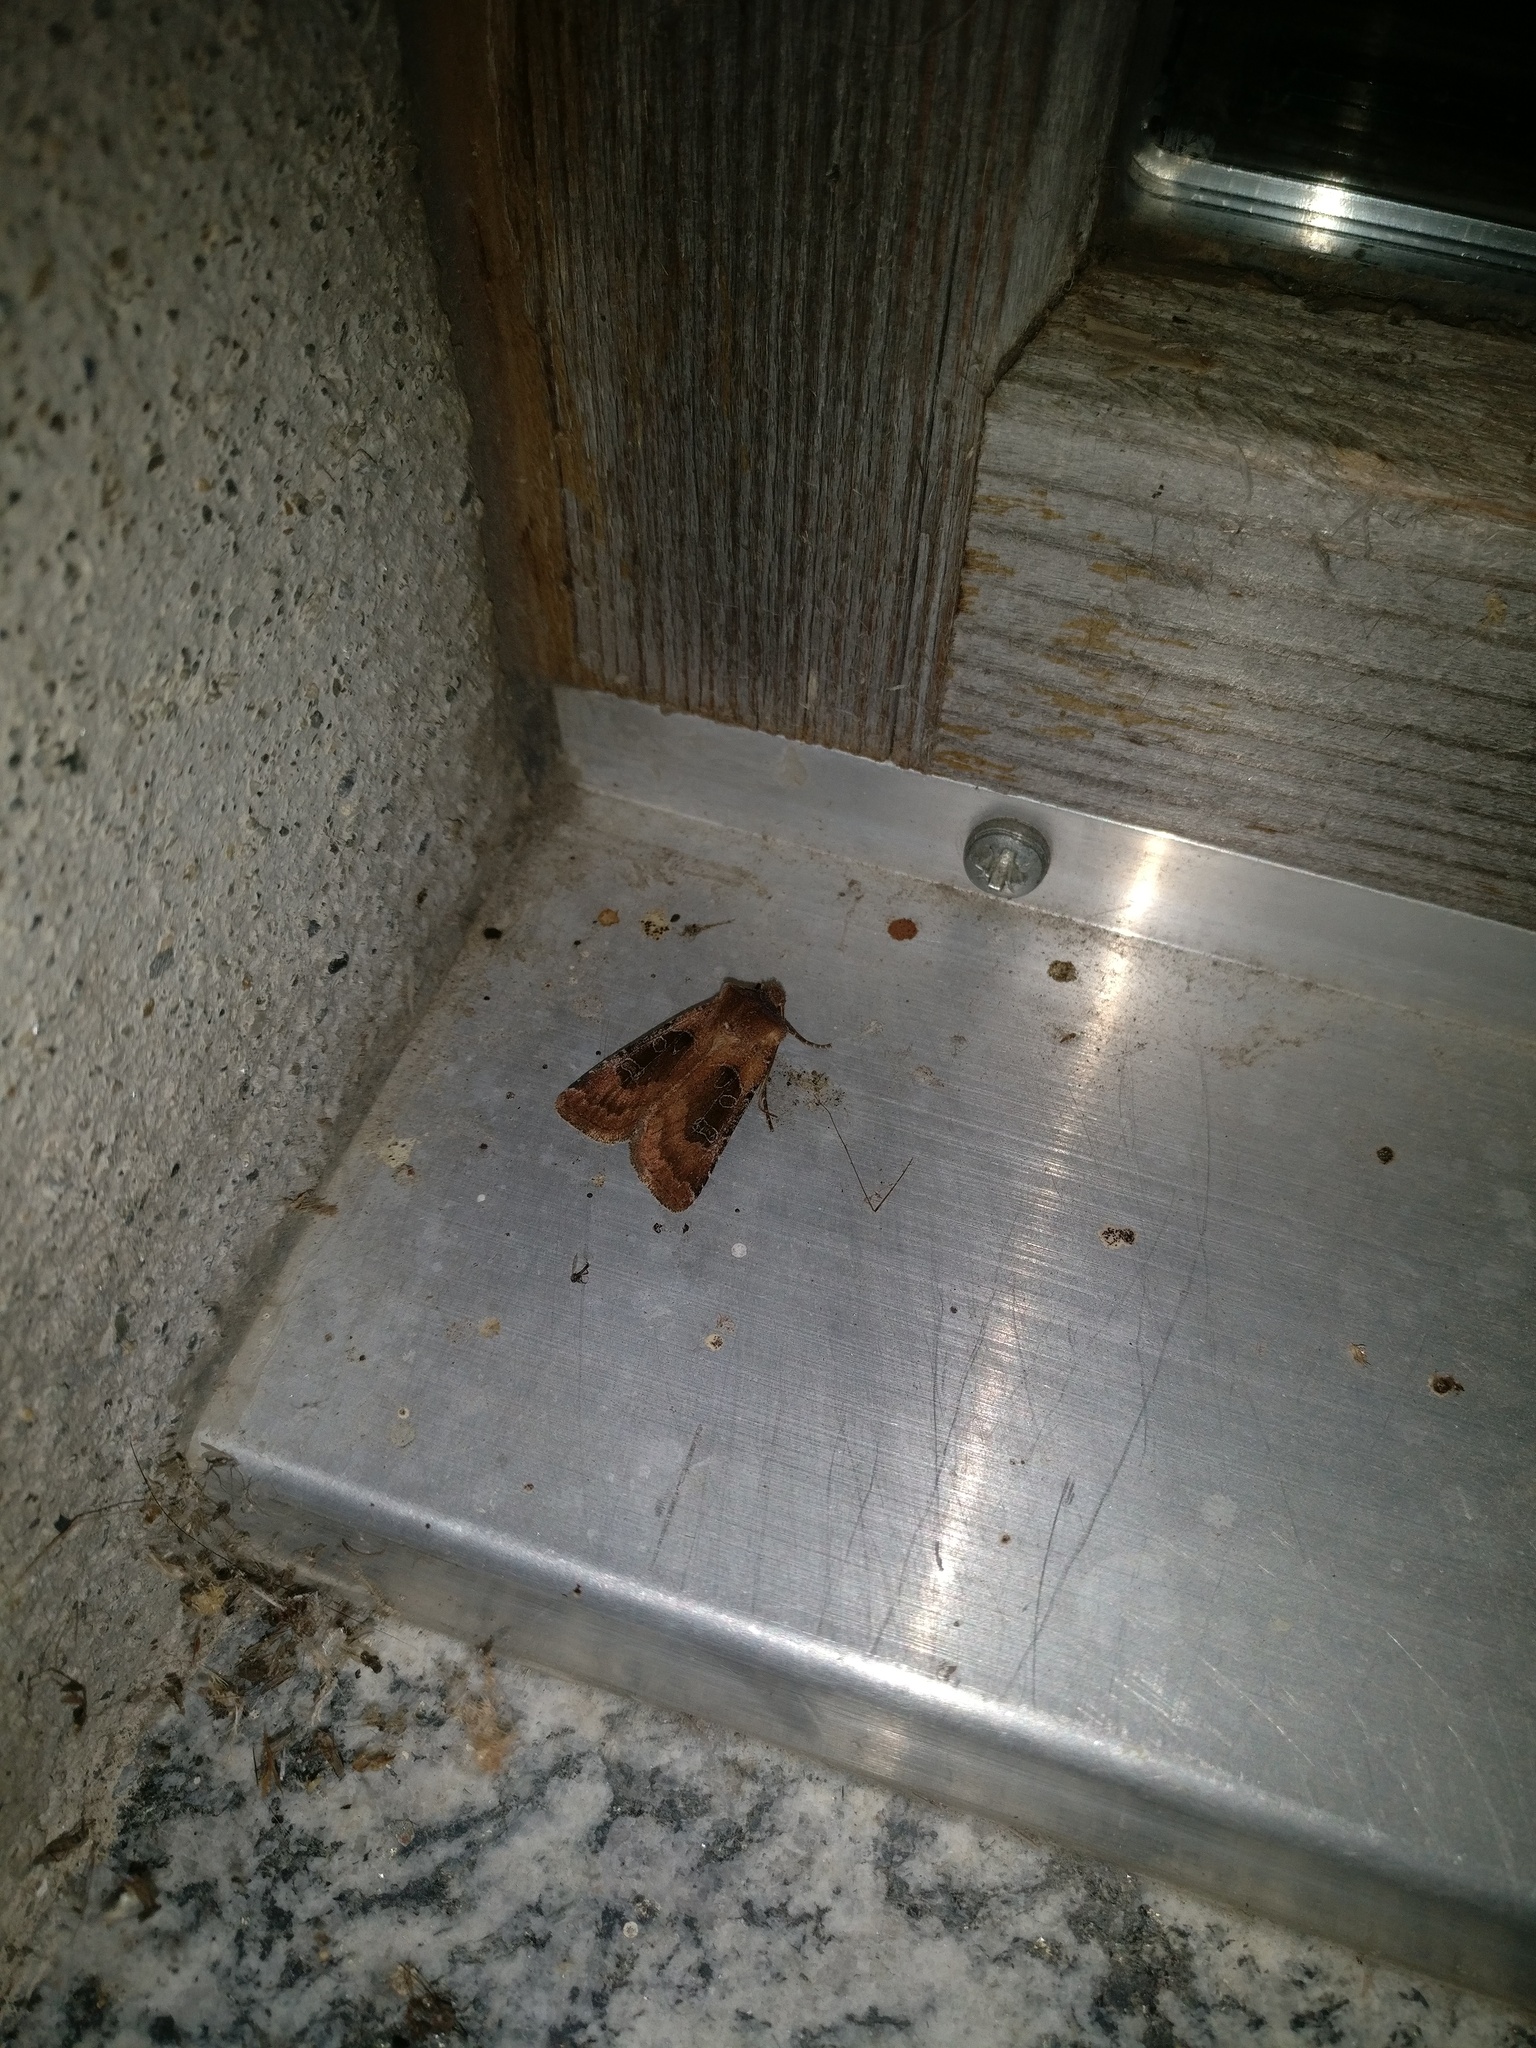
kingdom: Animalia
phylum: Arthropoda
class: Insecta
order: Lepidoptera
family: Noctuidae
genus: Chersotis
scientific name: Chersotis cuprea
